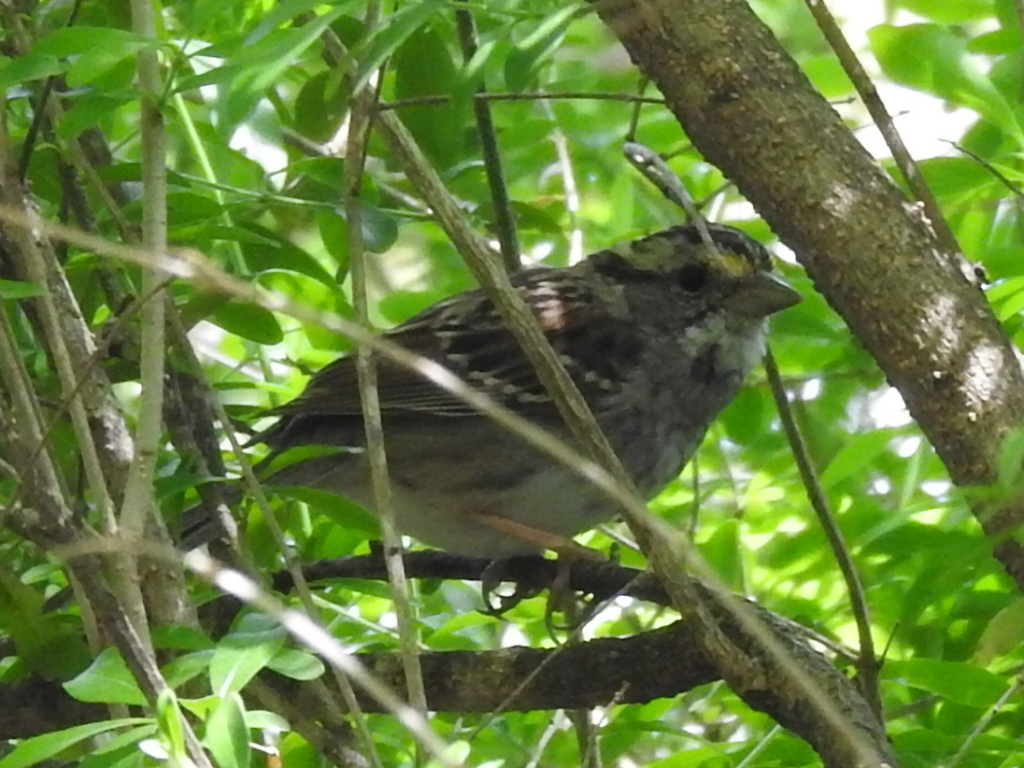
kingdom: Animalia
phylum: Chordata
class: Aves
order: Passeriformes
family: Passerellidae
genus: Zonotrichia
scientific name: Zonotrichia albicollis
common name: White-throated sparrow
